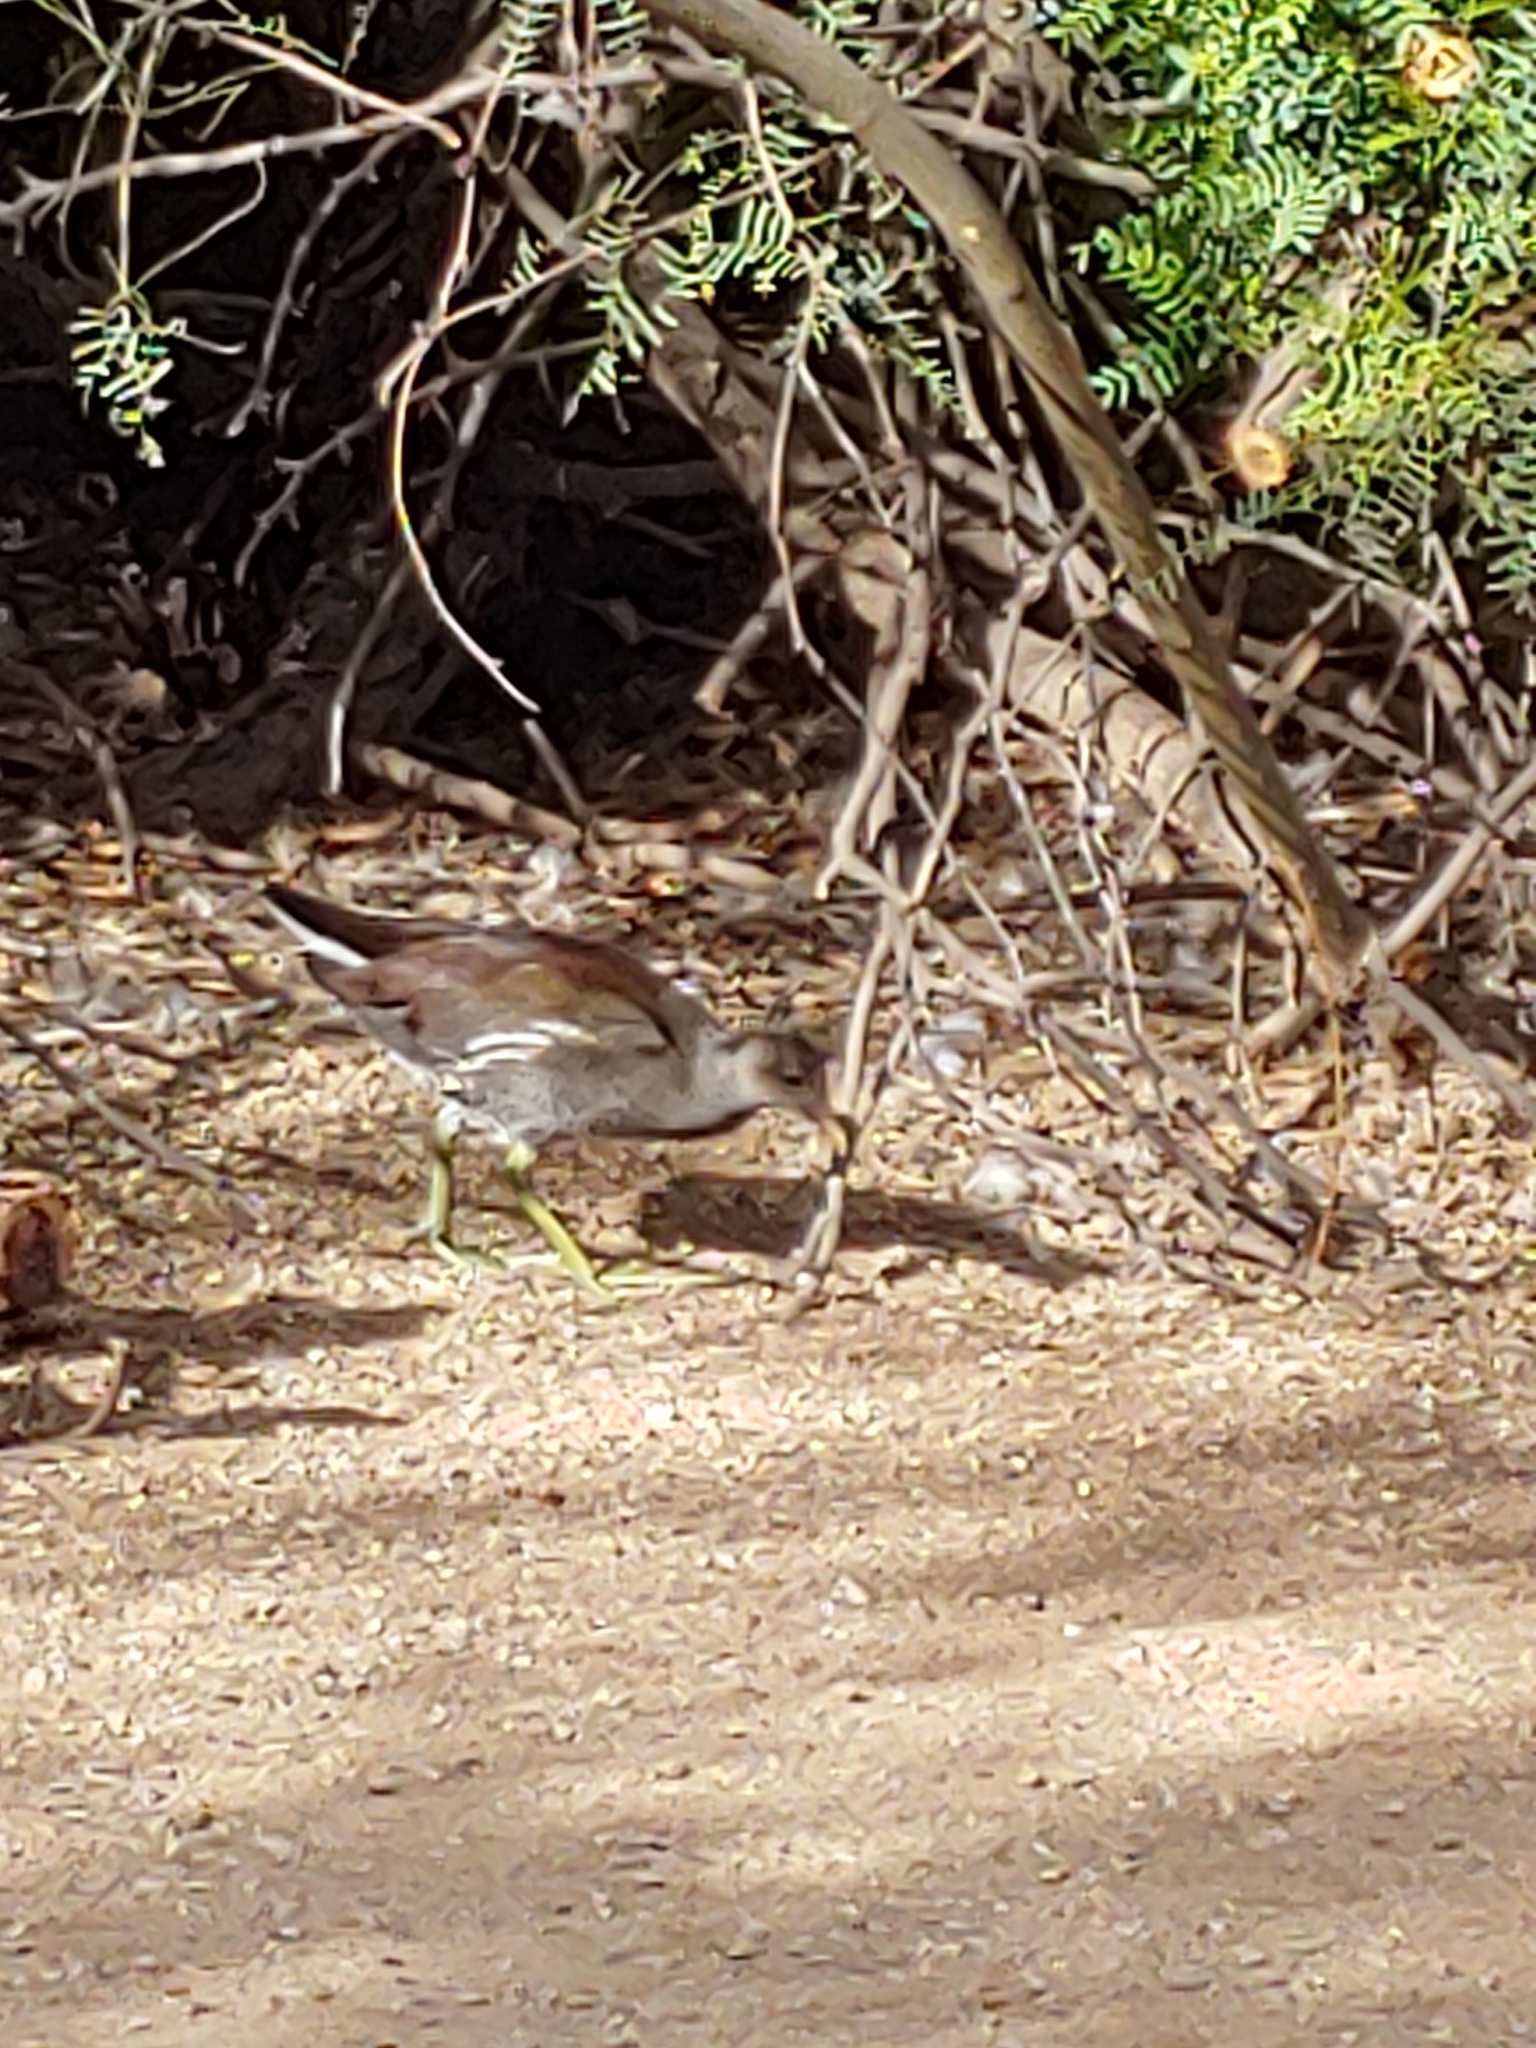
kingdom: Animalia
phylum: Chordata
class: Aves
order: Gruiformes
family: Rallidae
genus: Gallinula
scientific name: Gallinula chloropus
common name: Common moorhen
